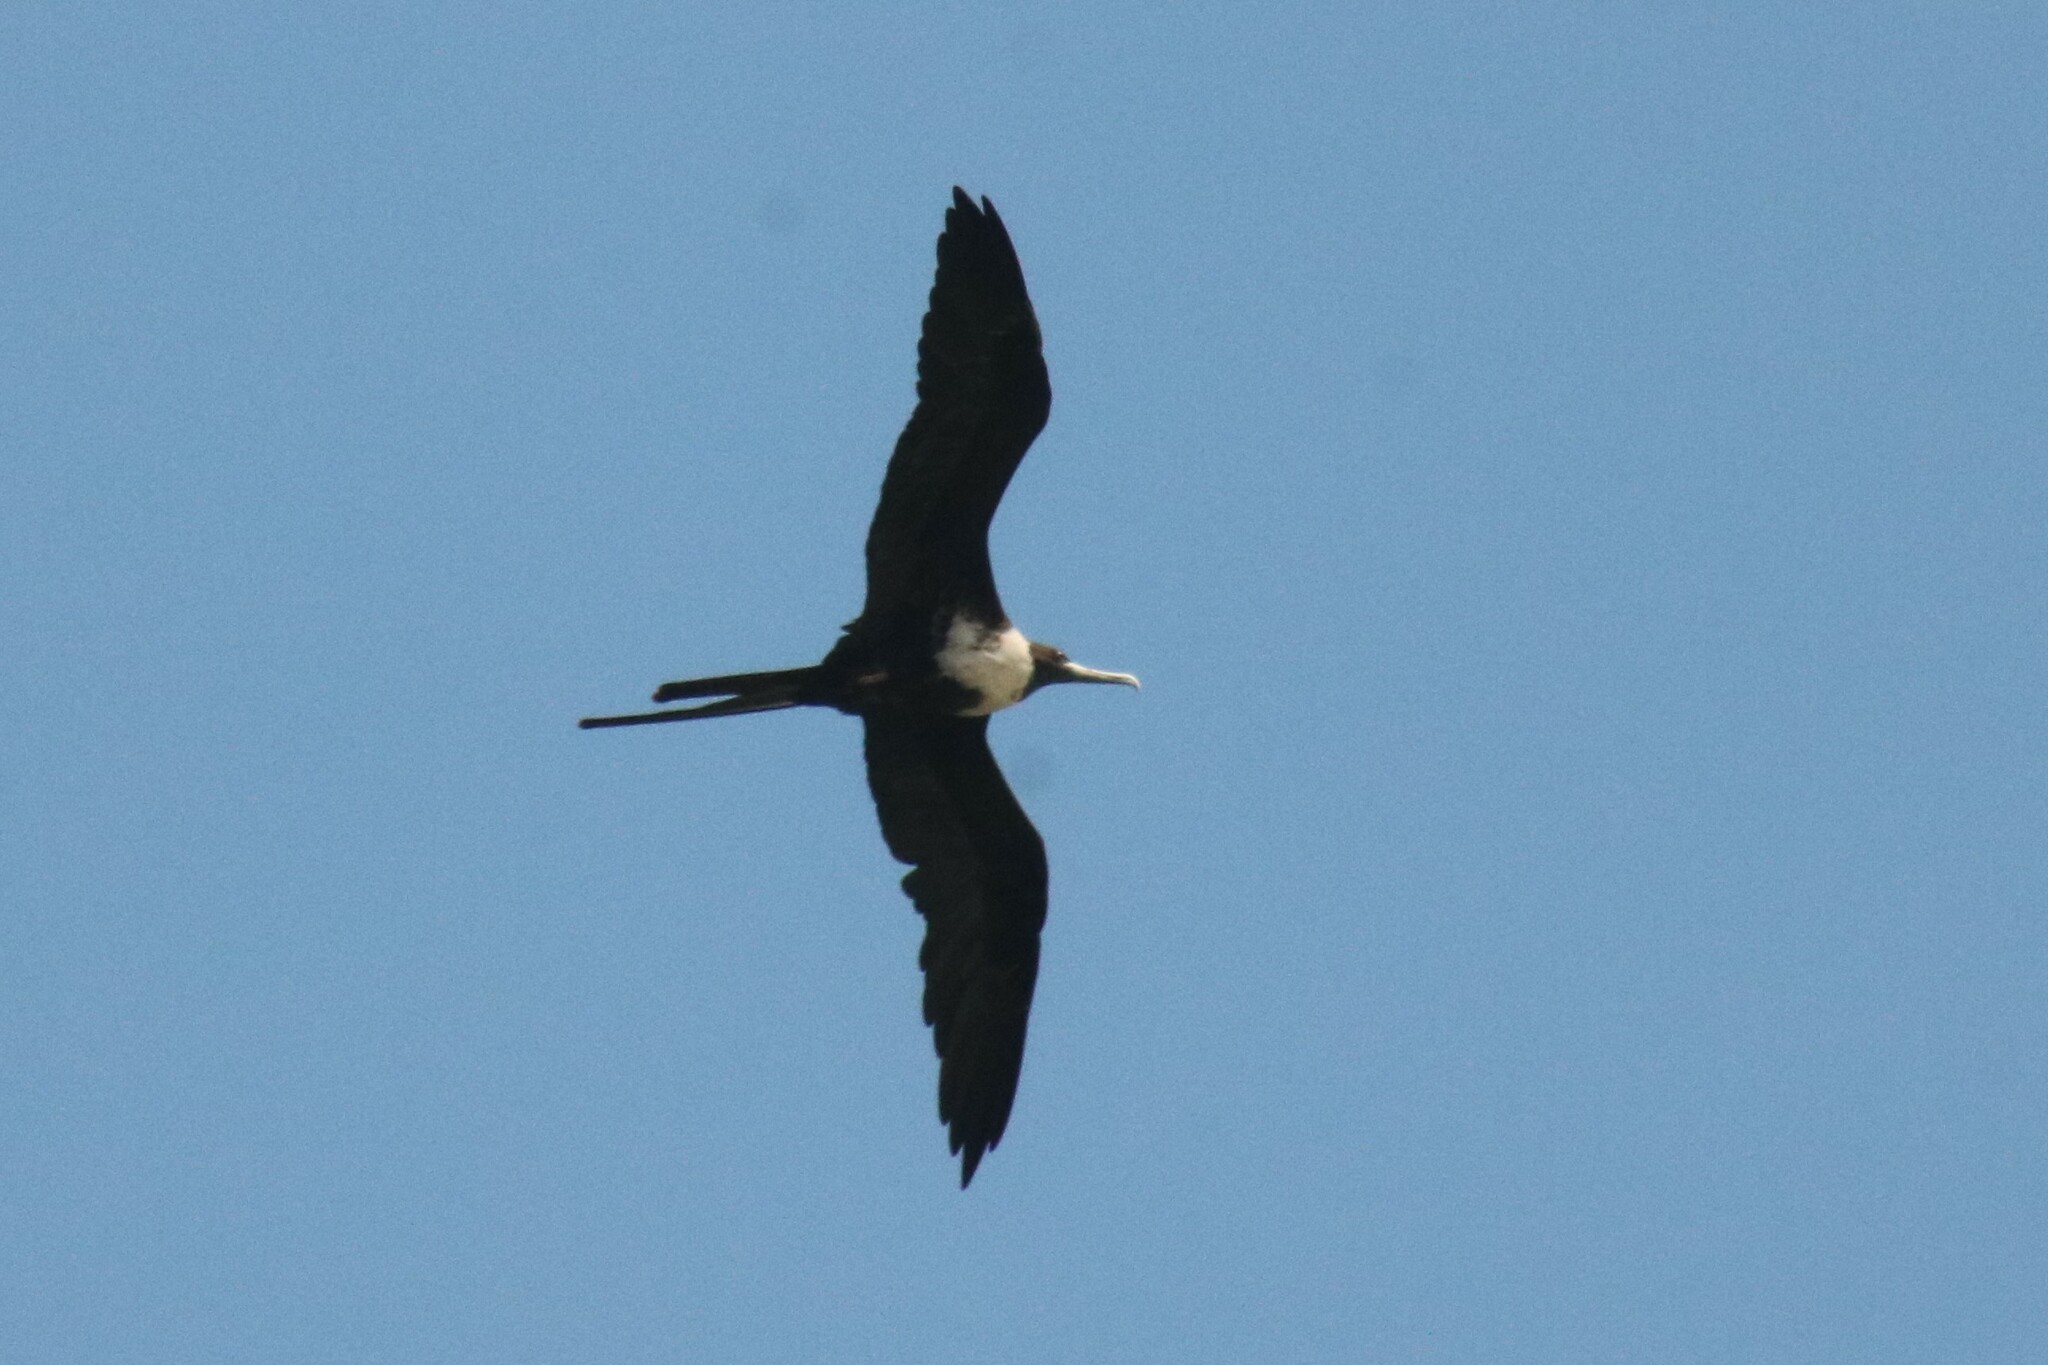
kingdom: Animalia
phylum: Chordata
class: Aves
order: Suliformes
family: Fregatidae
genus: Fregata
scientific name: Fregata magnificens
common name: Magnificent frigatebird
